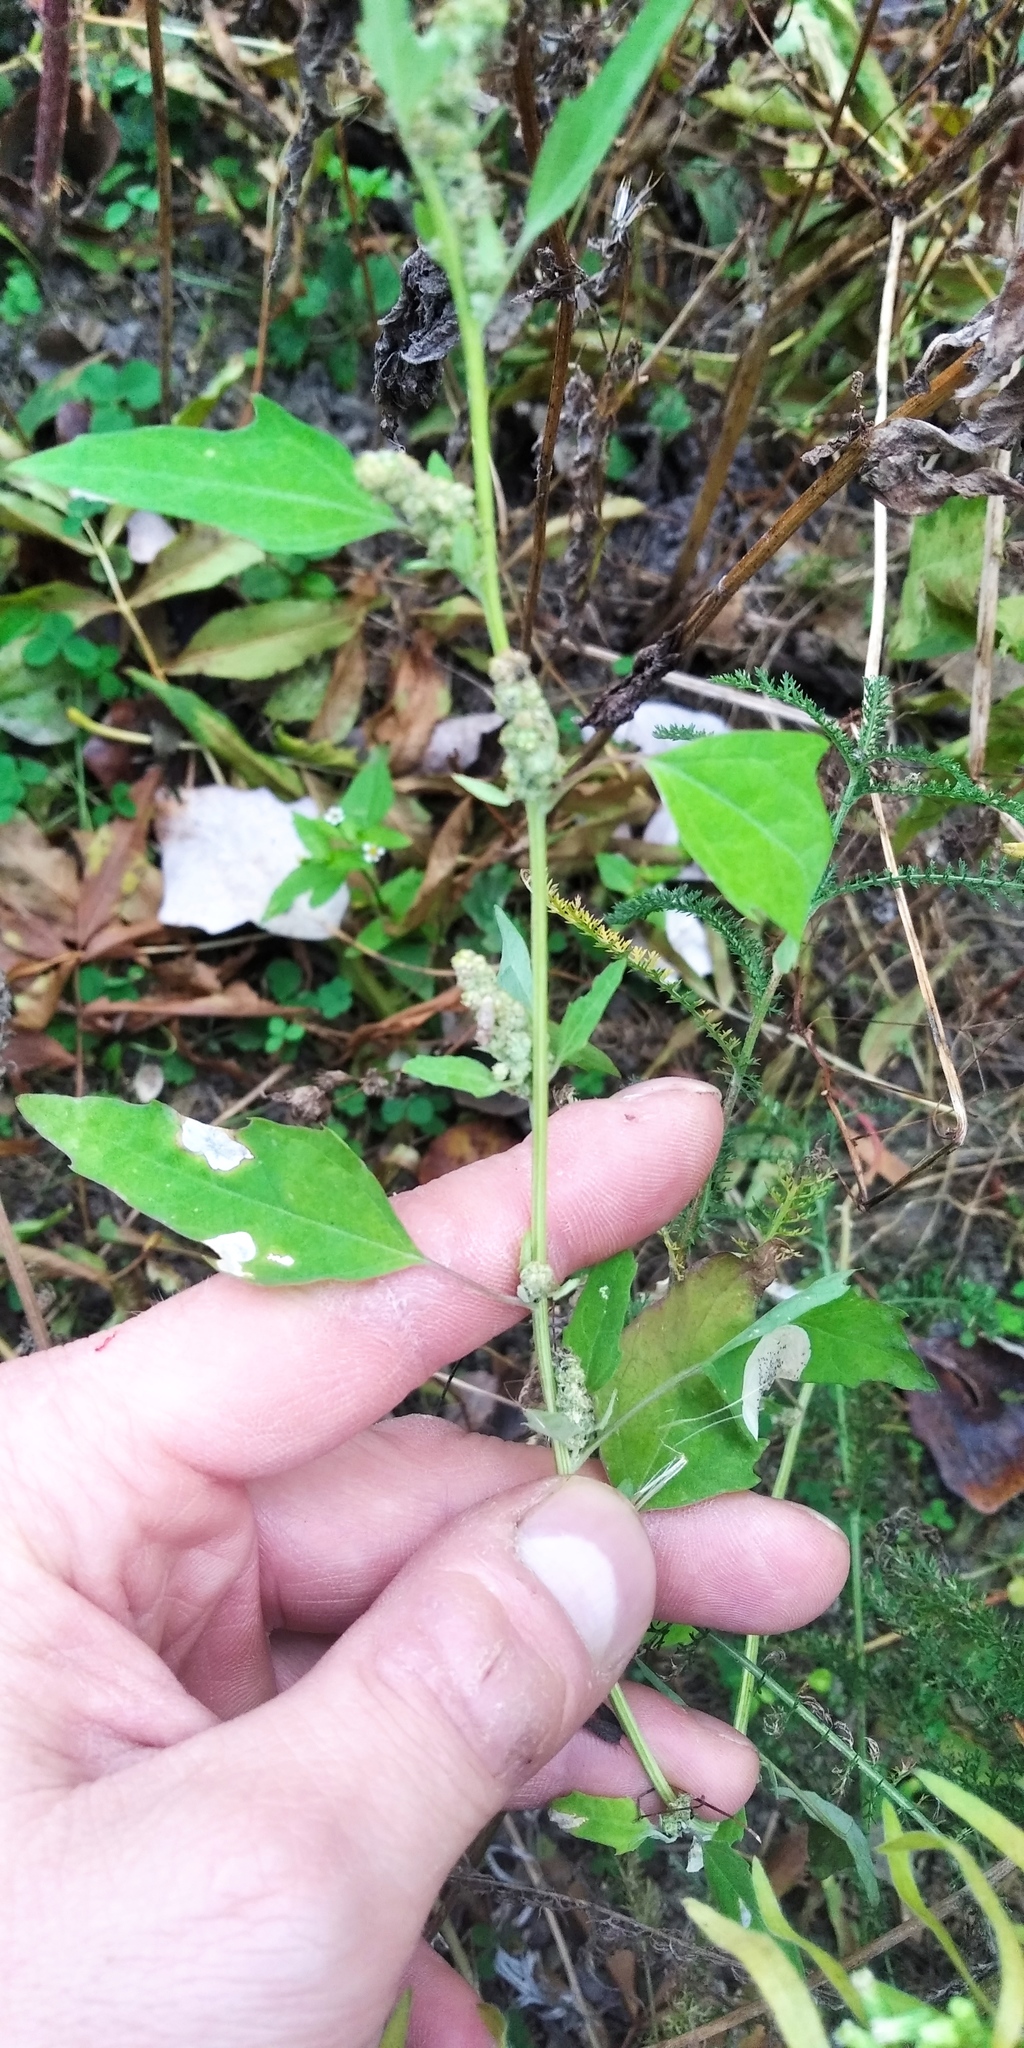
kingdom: Plantae
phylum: Tracheophyta
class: Magnoliopsida
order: Caryophyllales
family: Amaranthaceae
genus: Chenopodium
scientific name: Chenopodium album
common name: Fat-hen
